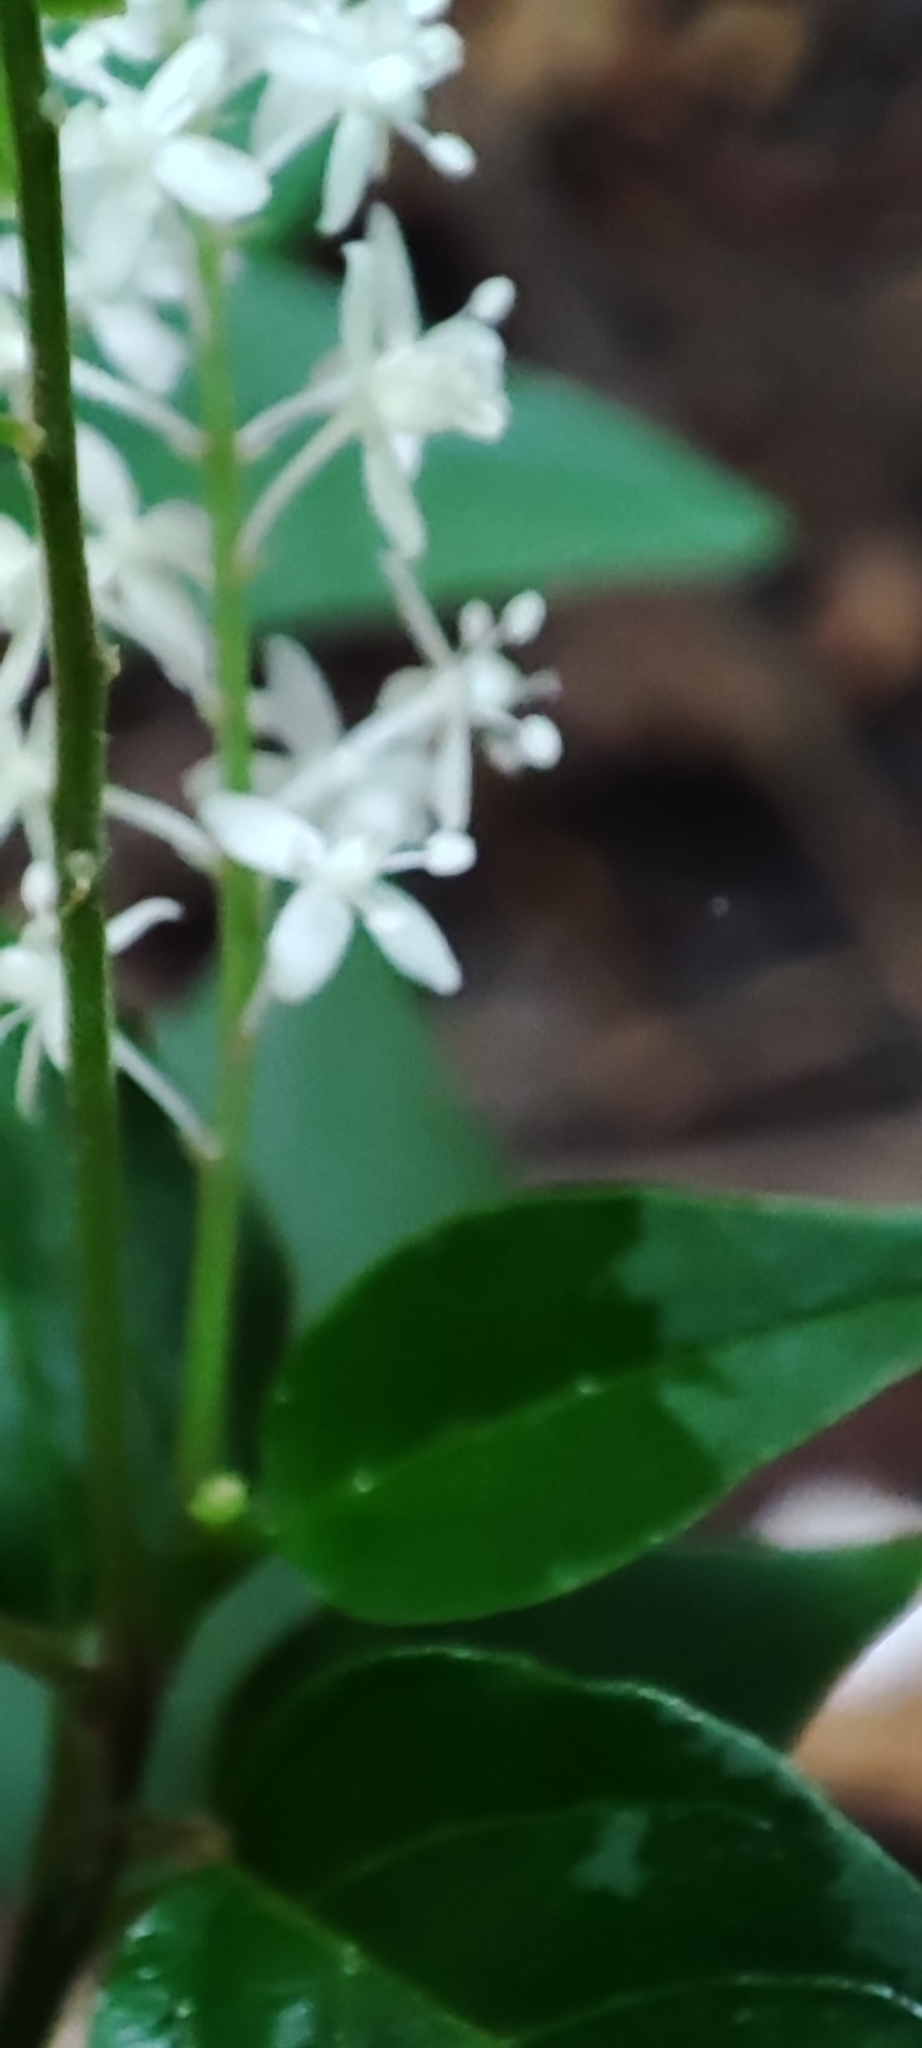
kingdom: Plantae
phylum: Tracheophyta
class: Magnoliopsida
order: Caryophyllales
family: Phytolaccaceae
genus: Rivina
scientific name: Rivina humilis
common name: Rougeplant
